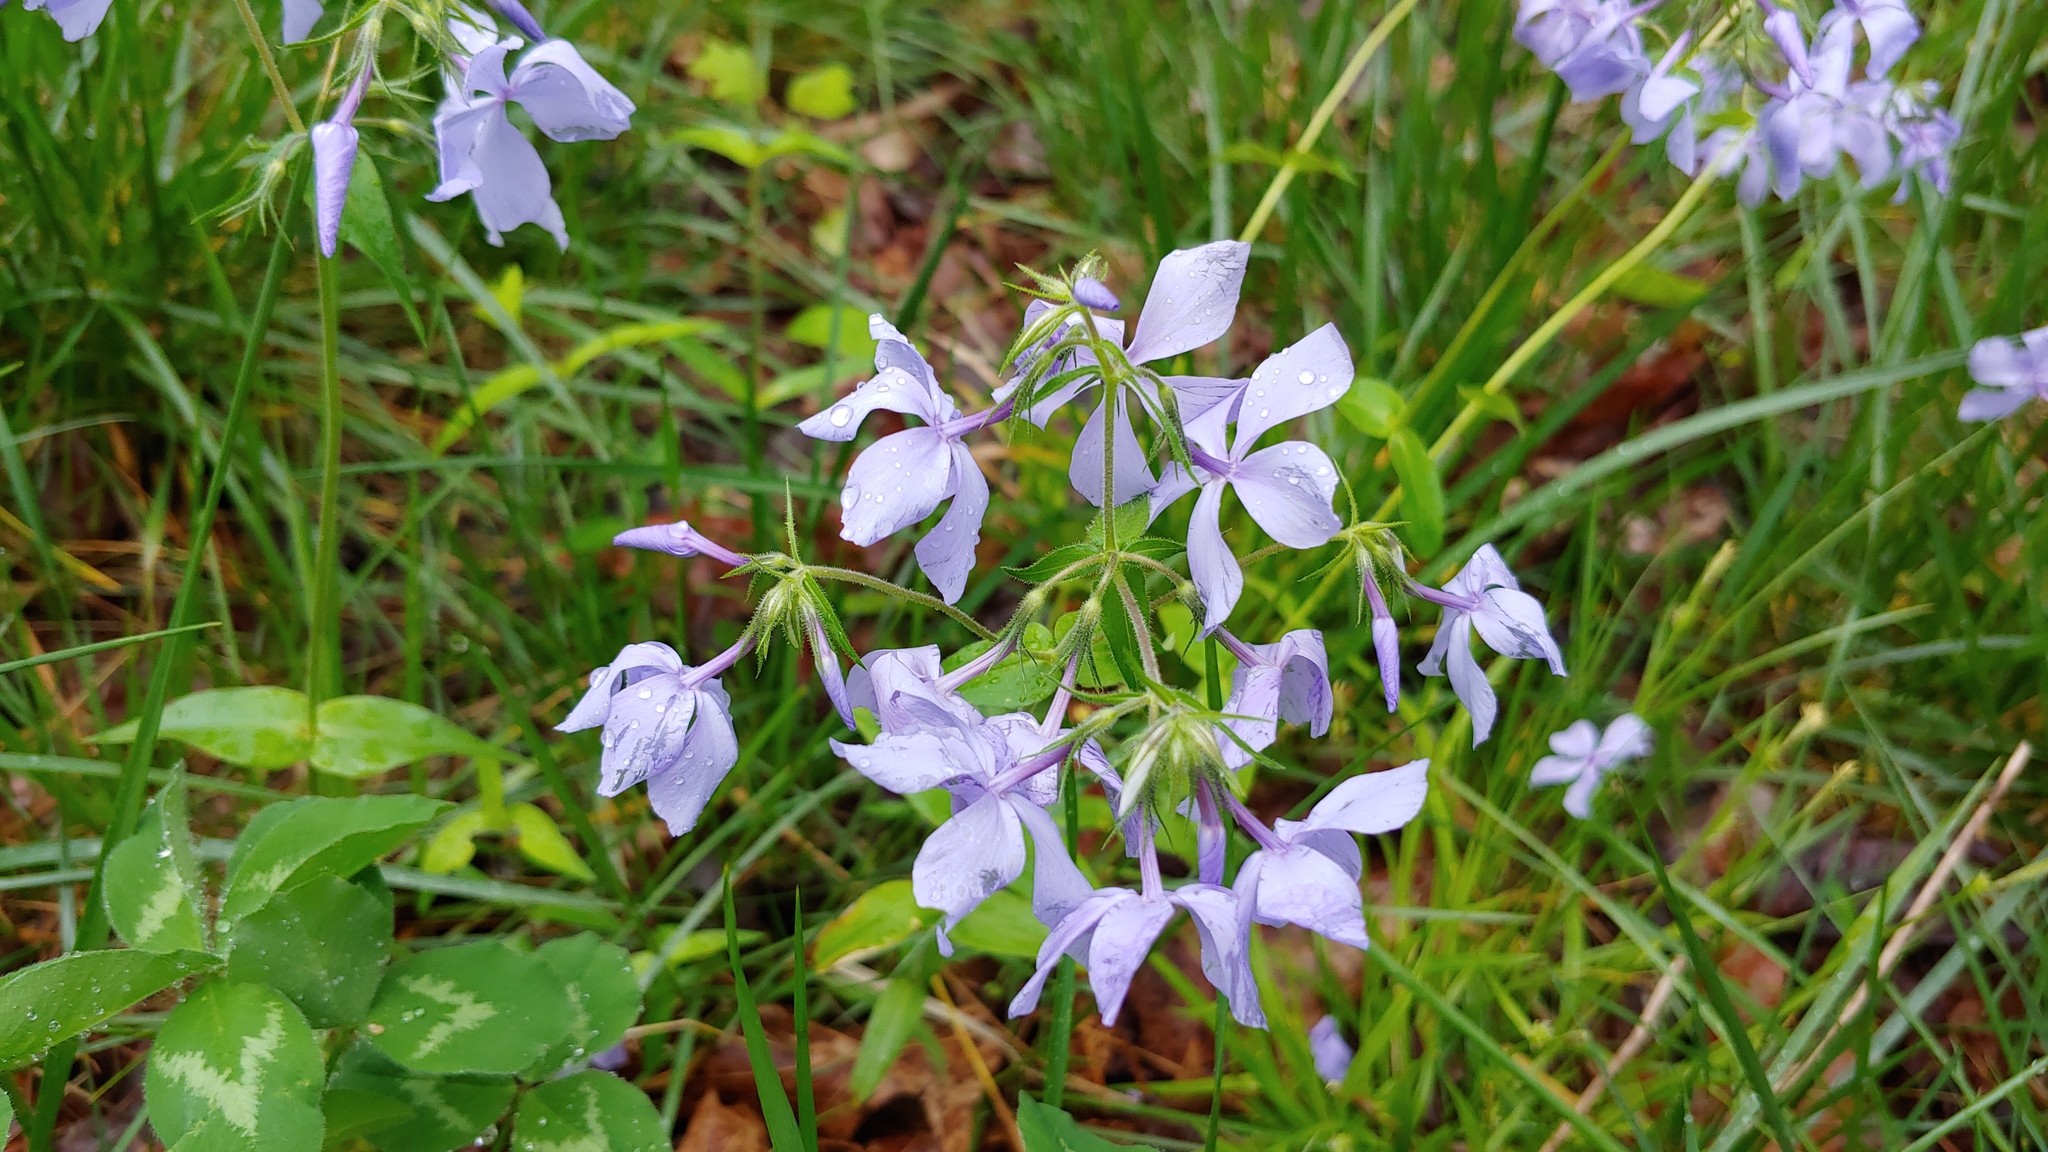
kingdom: Plantae
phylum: Tracheophyta
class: Magnoliopsida
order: Ericales
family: Polemoniaceae
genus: Phlox
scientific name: Phlox divaricata
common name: Blue phlox
